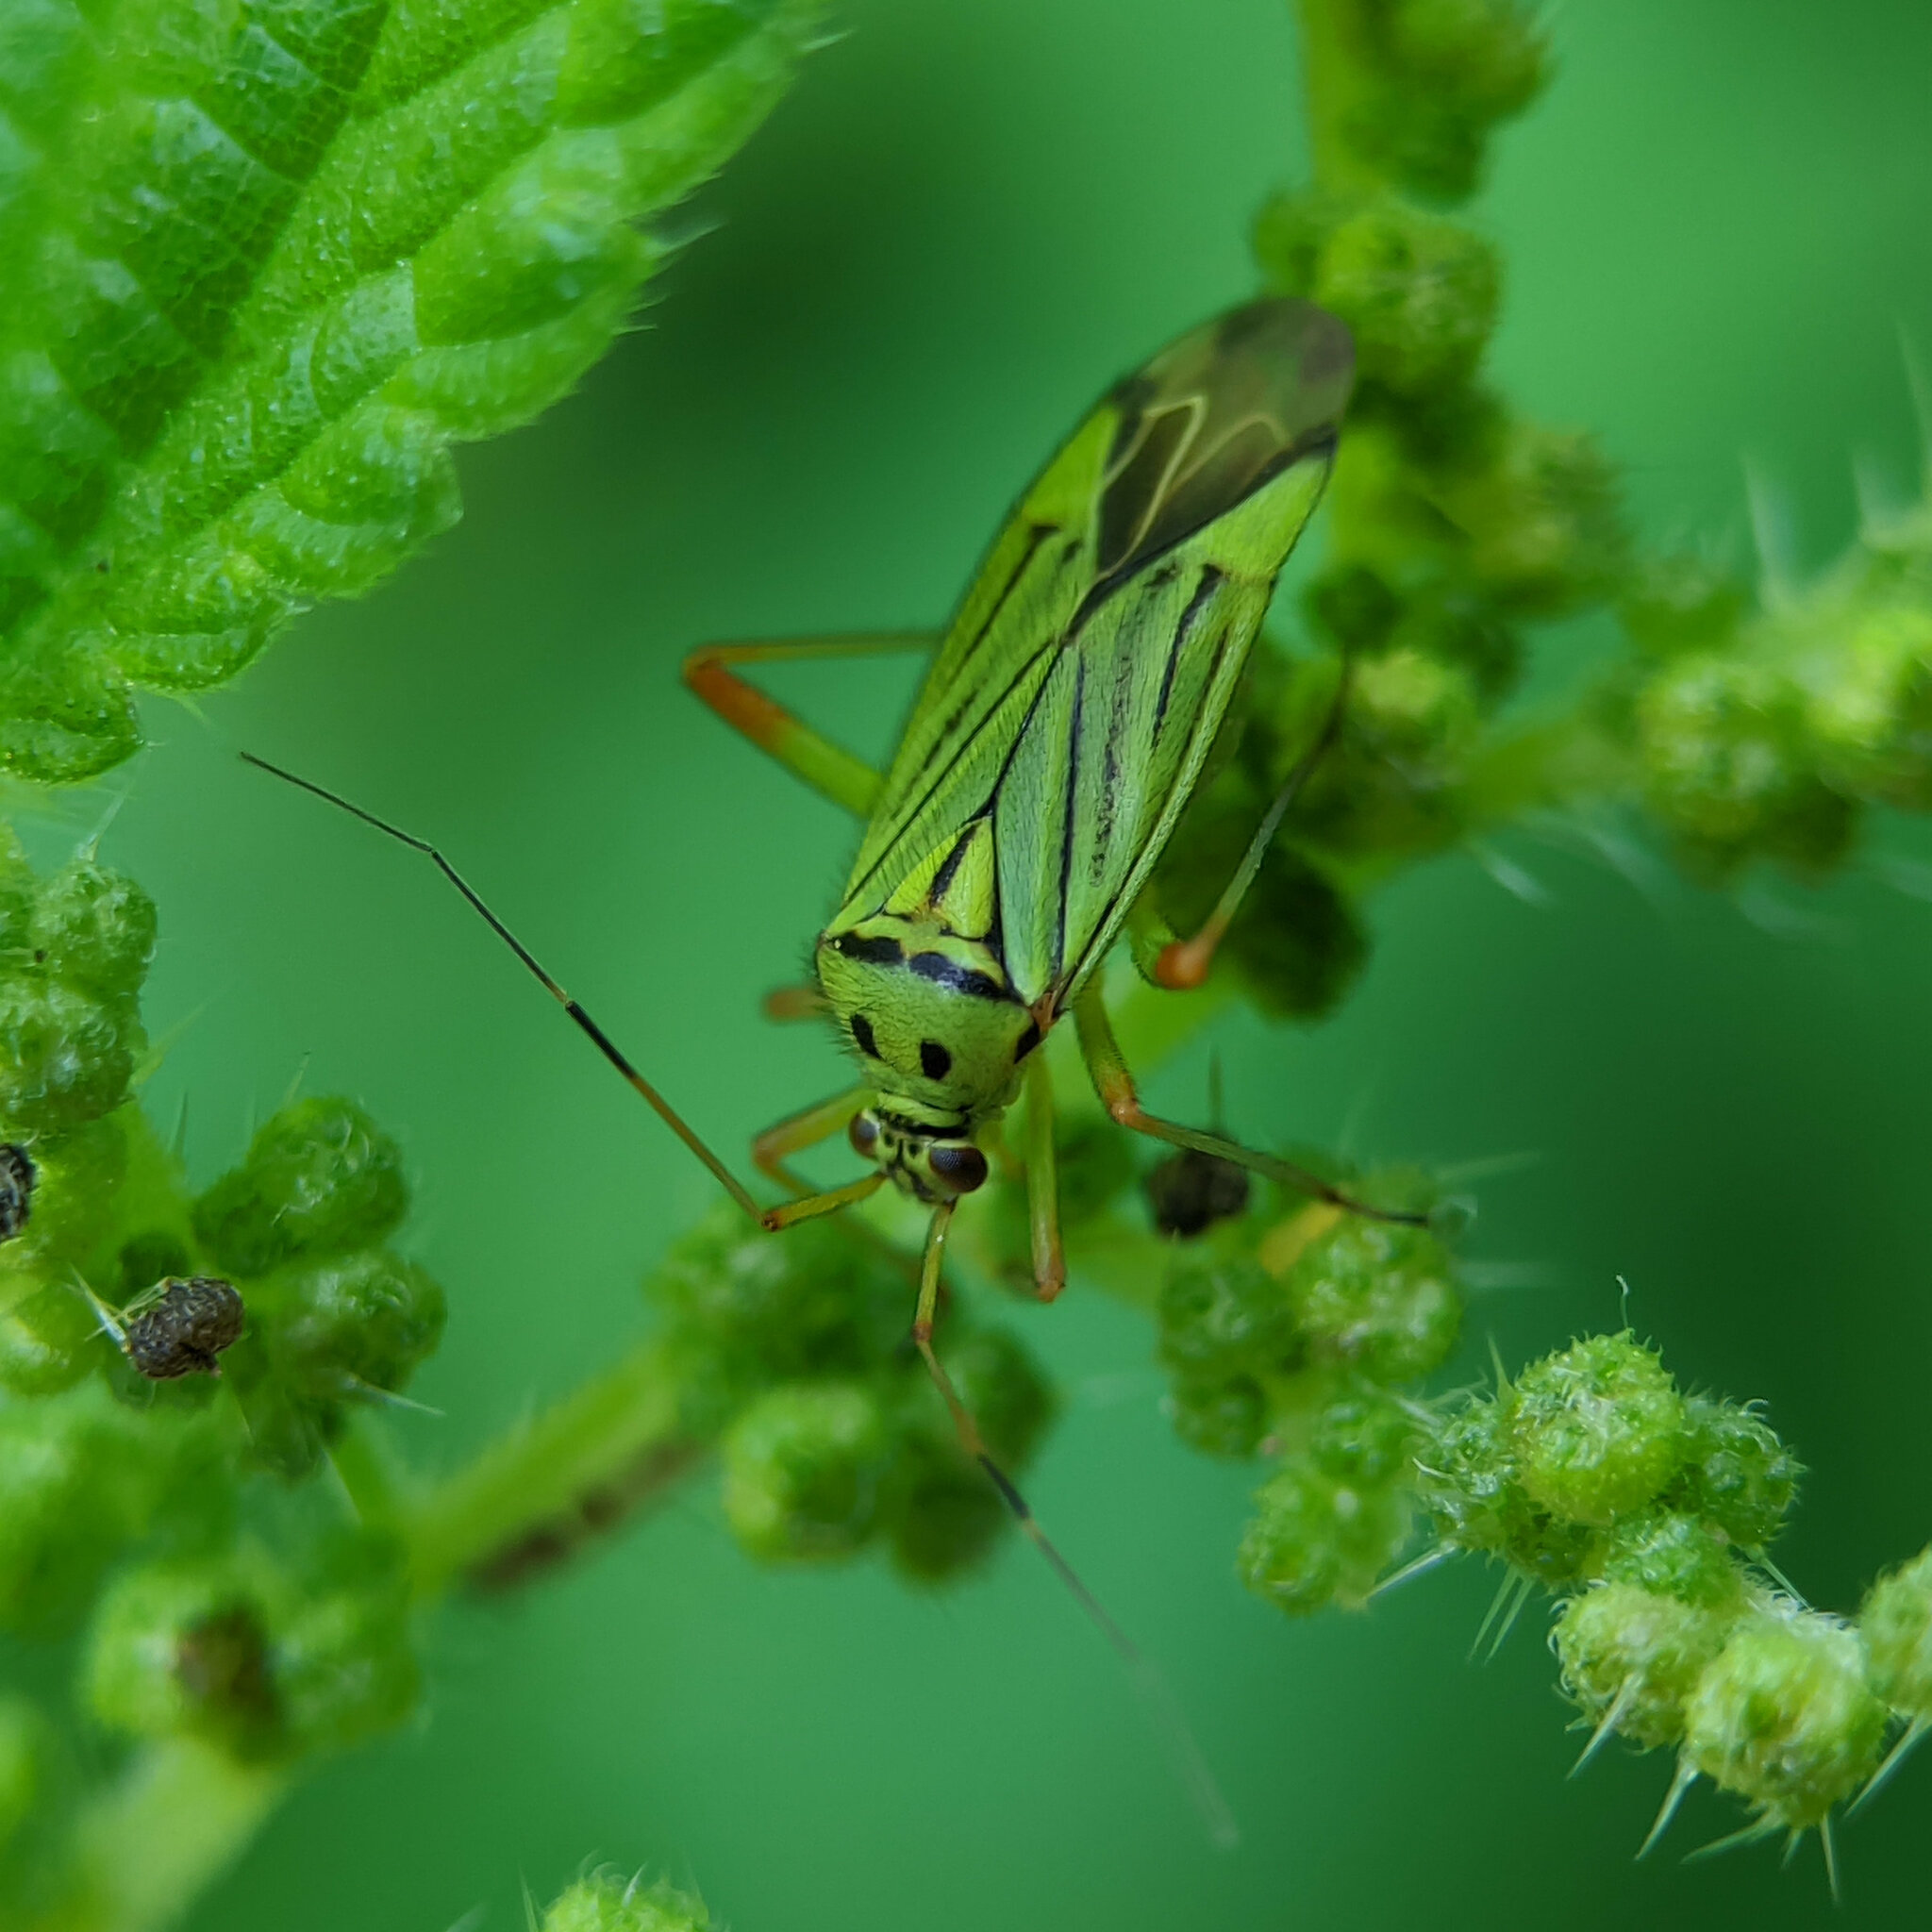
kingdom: Animalia
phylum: Arthropoda
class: Insecta
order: Hemiptera
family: Miridae
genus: Mermitelocerus
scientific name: Mermitelocerus schmidtii
